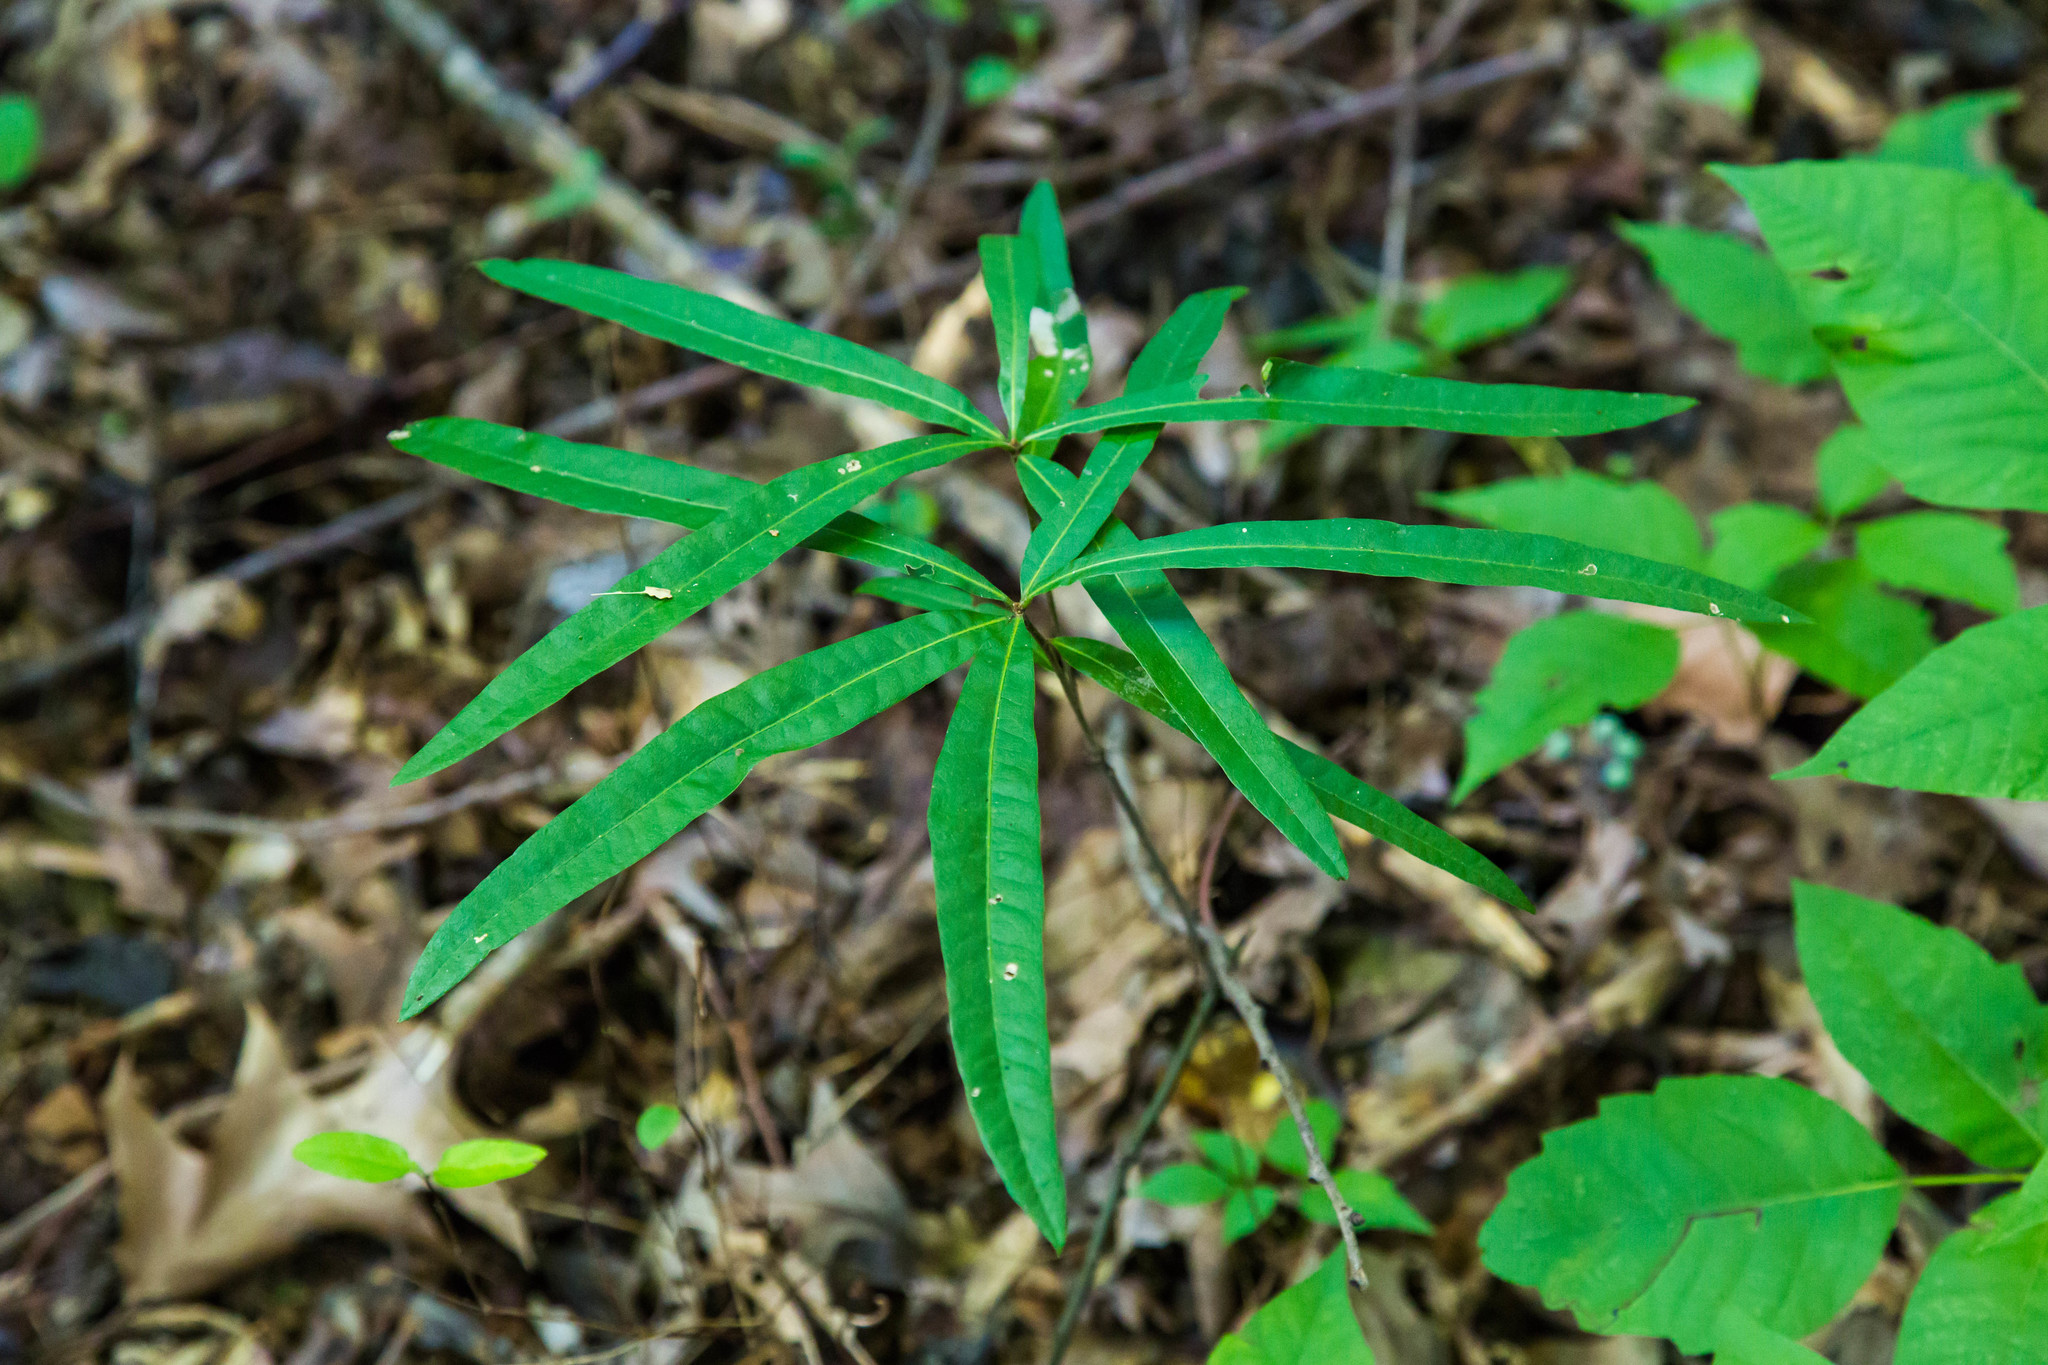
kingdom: Plantae
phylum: Tracheophyta
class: Magnoliopsida
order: Fagales
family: Fagaceae
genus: Quercus
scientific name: Quercus phellos
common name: Willow oak
